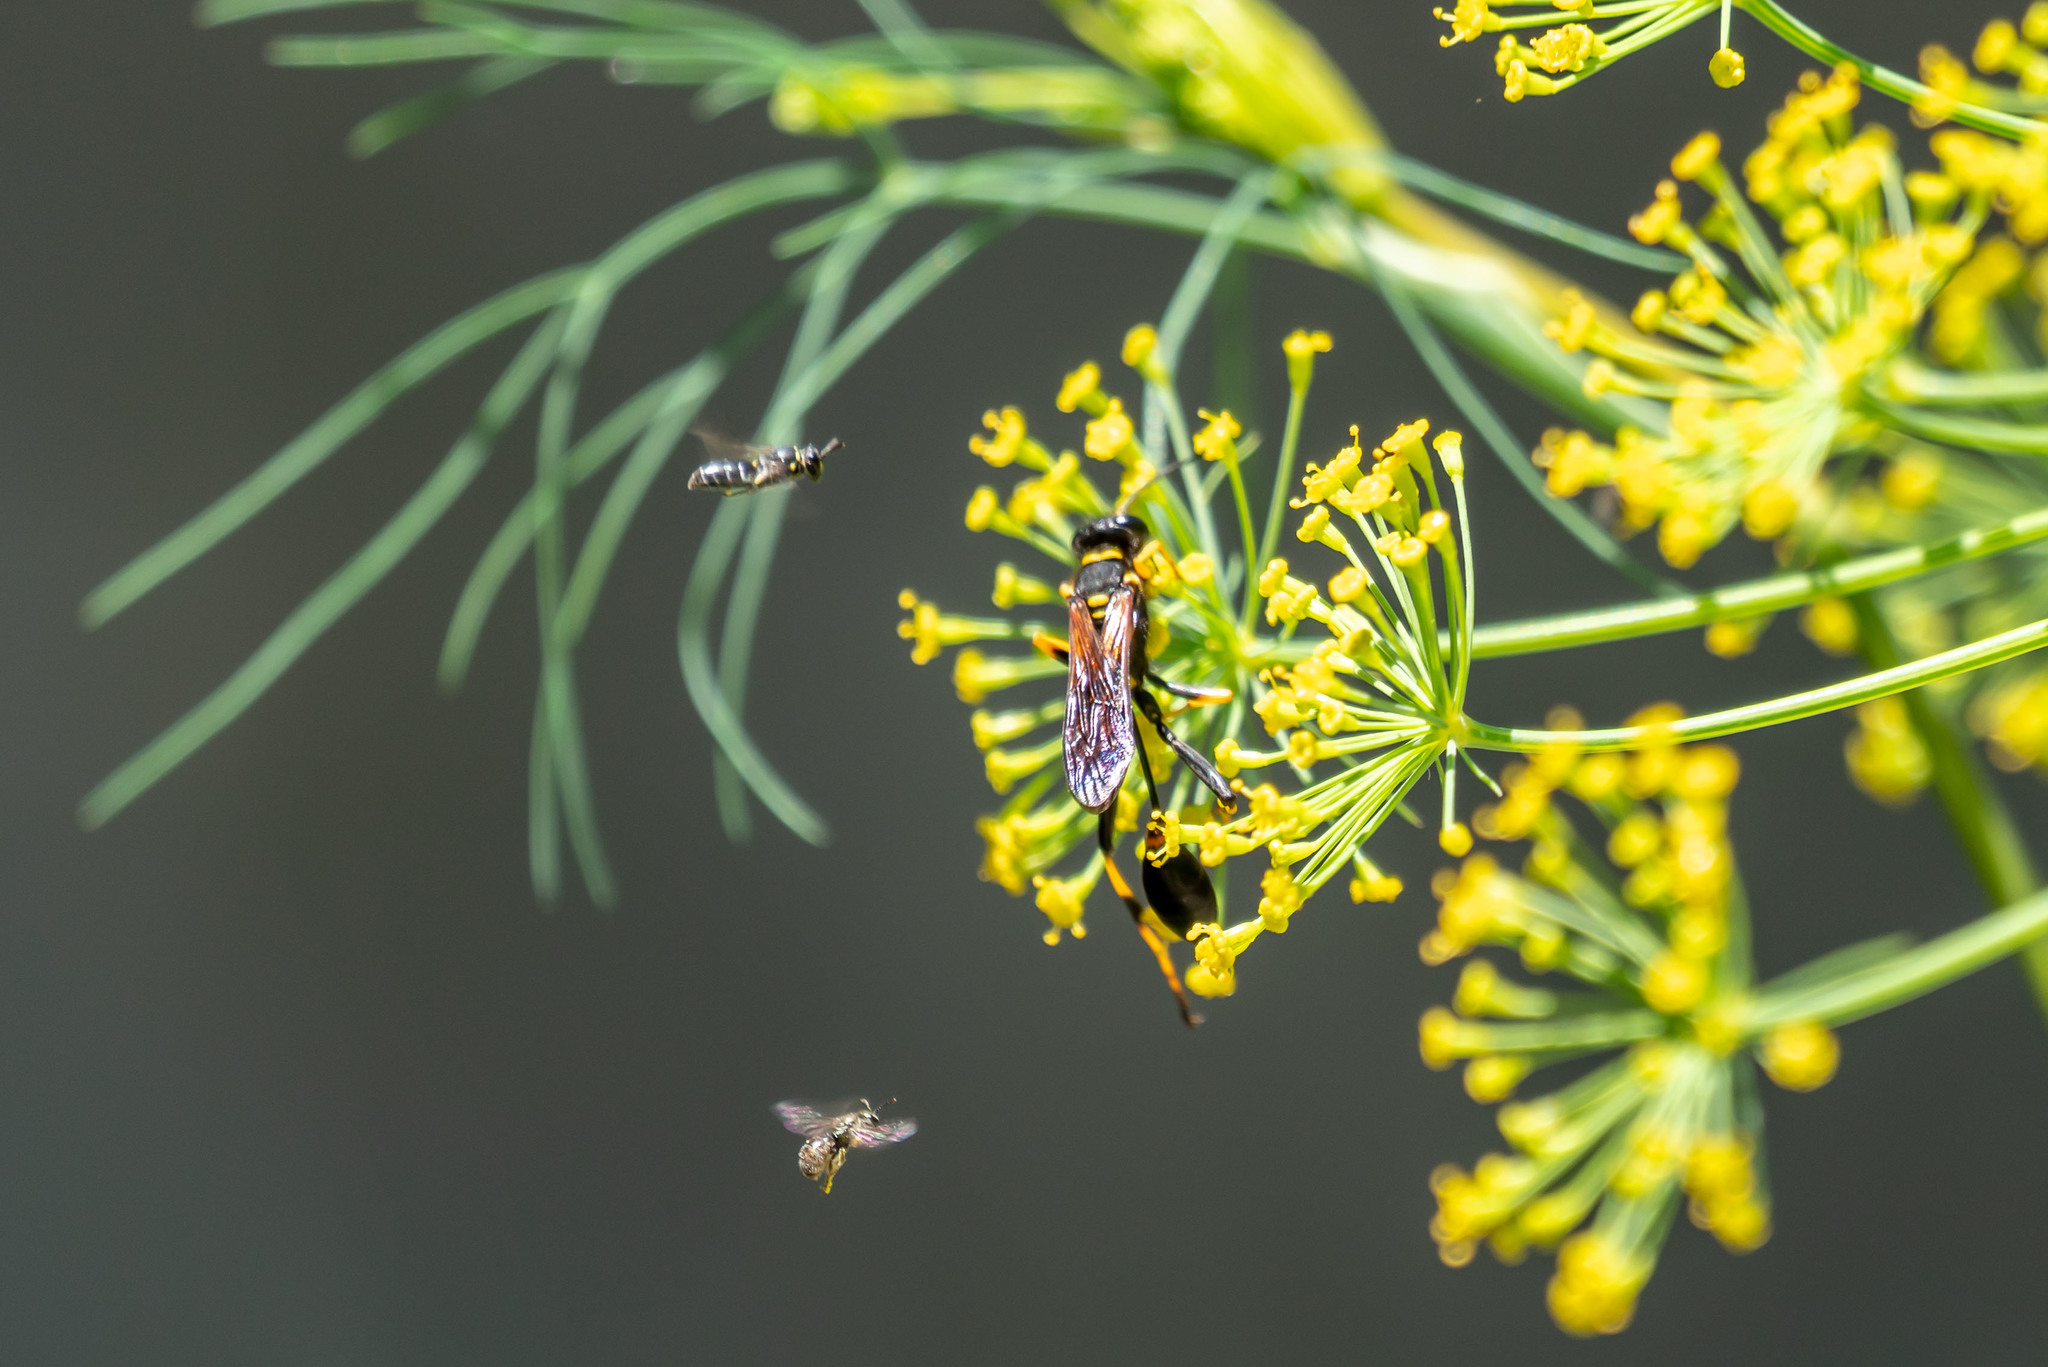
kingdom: Animalia
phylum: Arthropoda
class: Insecta
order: Hymenoptera
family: Sphecidae
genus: Sceliphron
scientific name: Sceliphron caementarium
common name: Mud dauber
